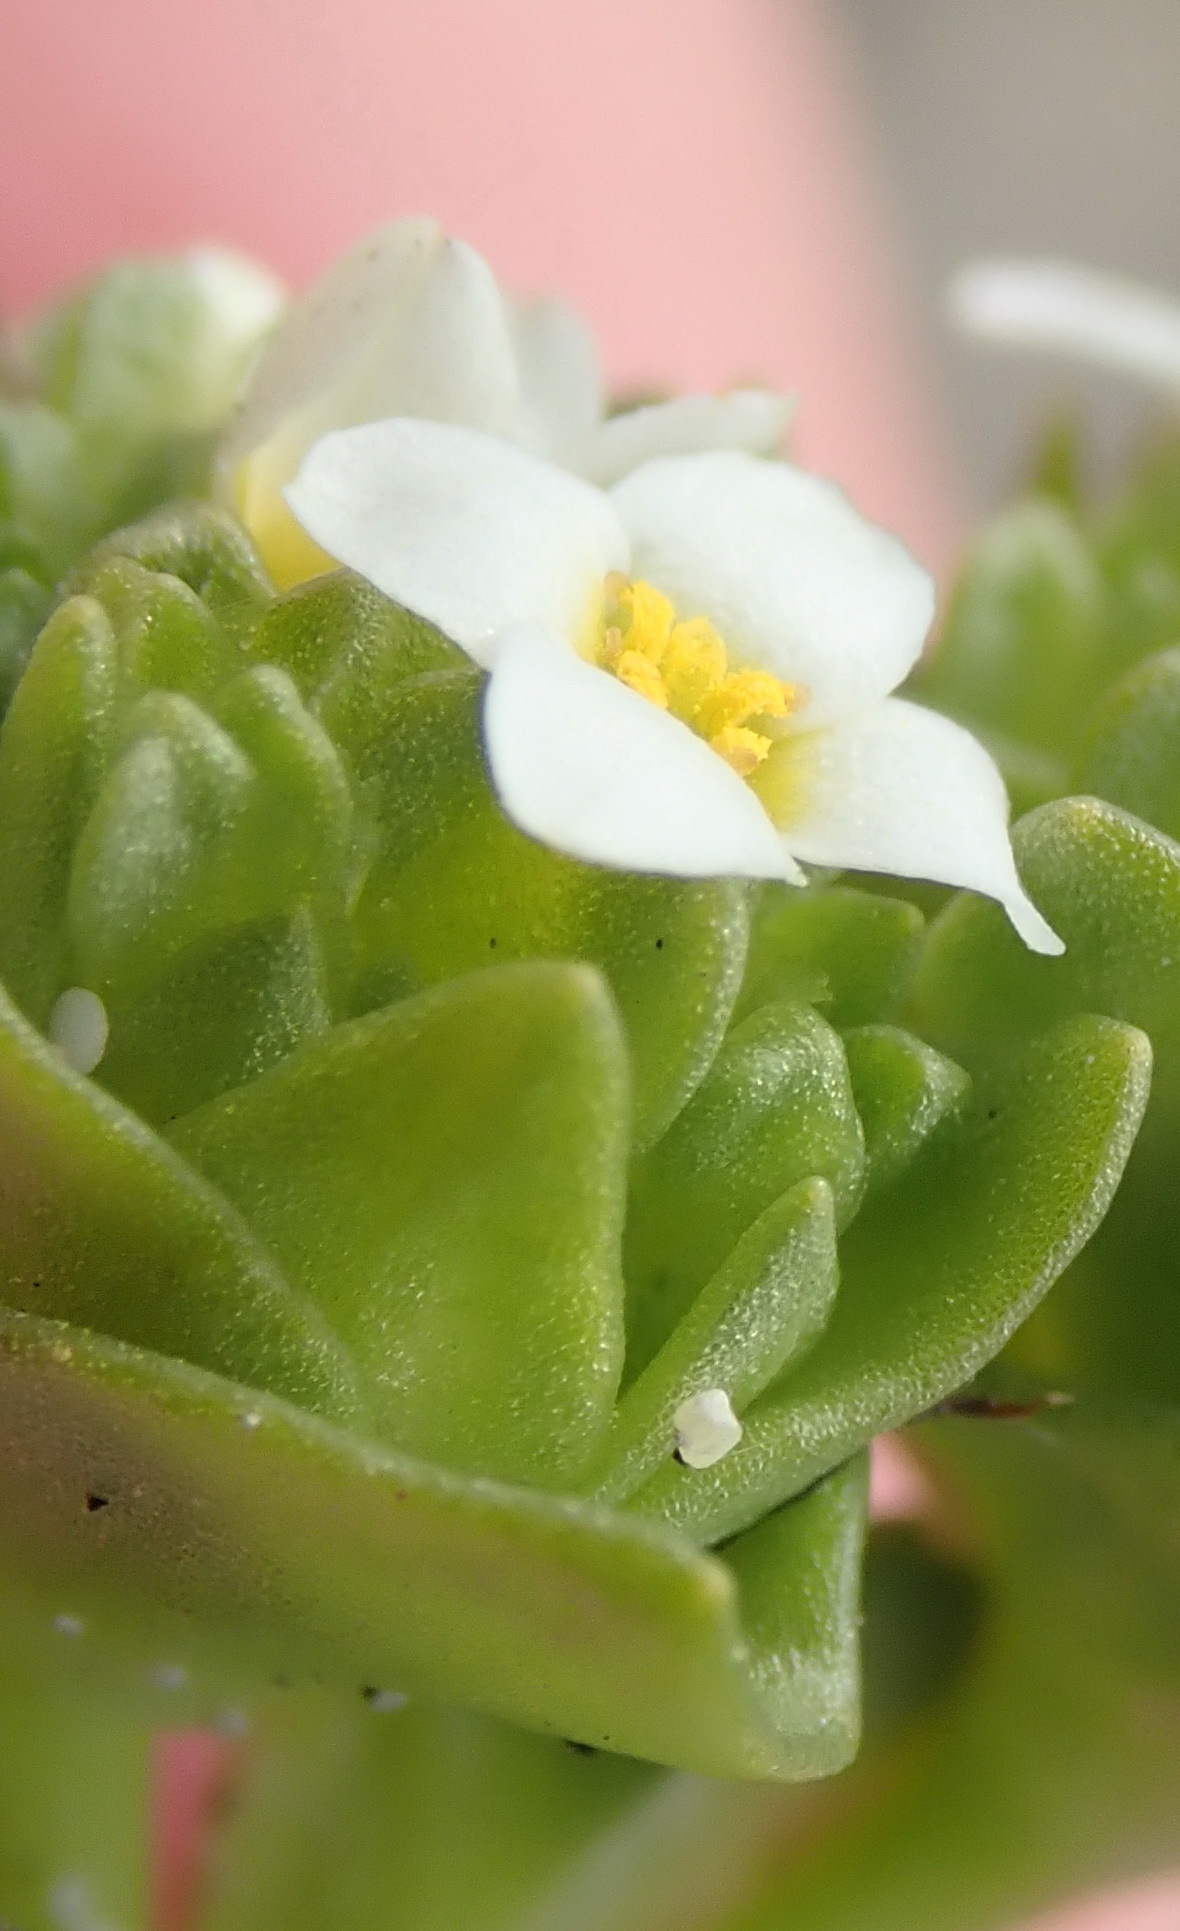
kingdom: Plantae
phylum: Tracheophyta
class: Magnoliopsida
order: Gentianales
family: Gentianaceae
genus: Sebaea
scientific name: Sebaea minutiflora
